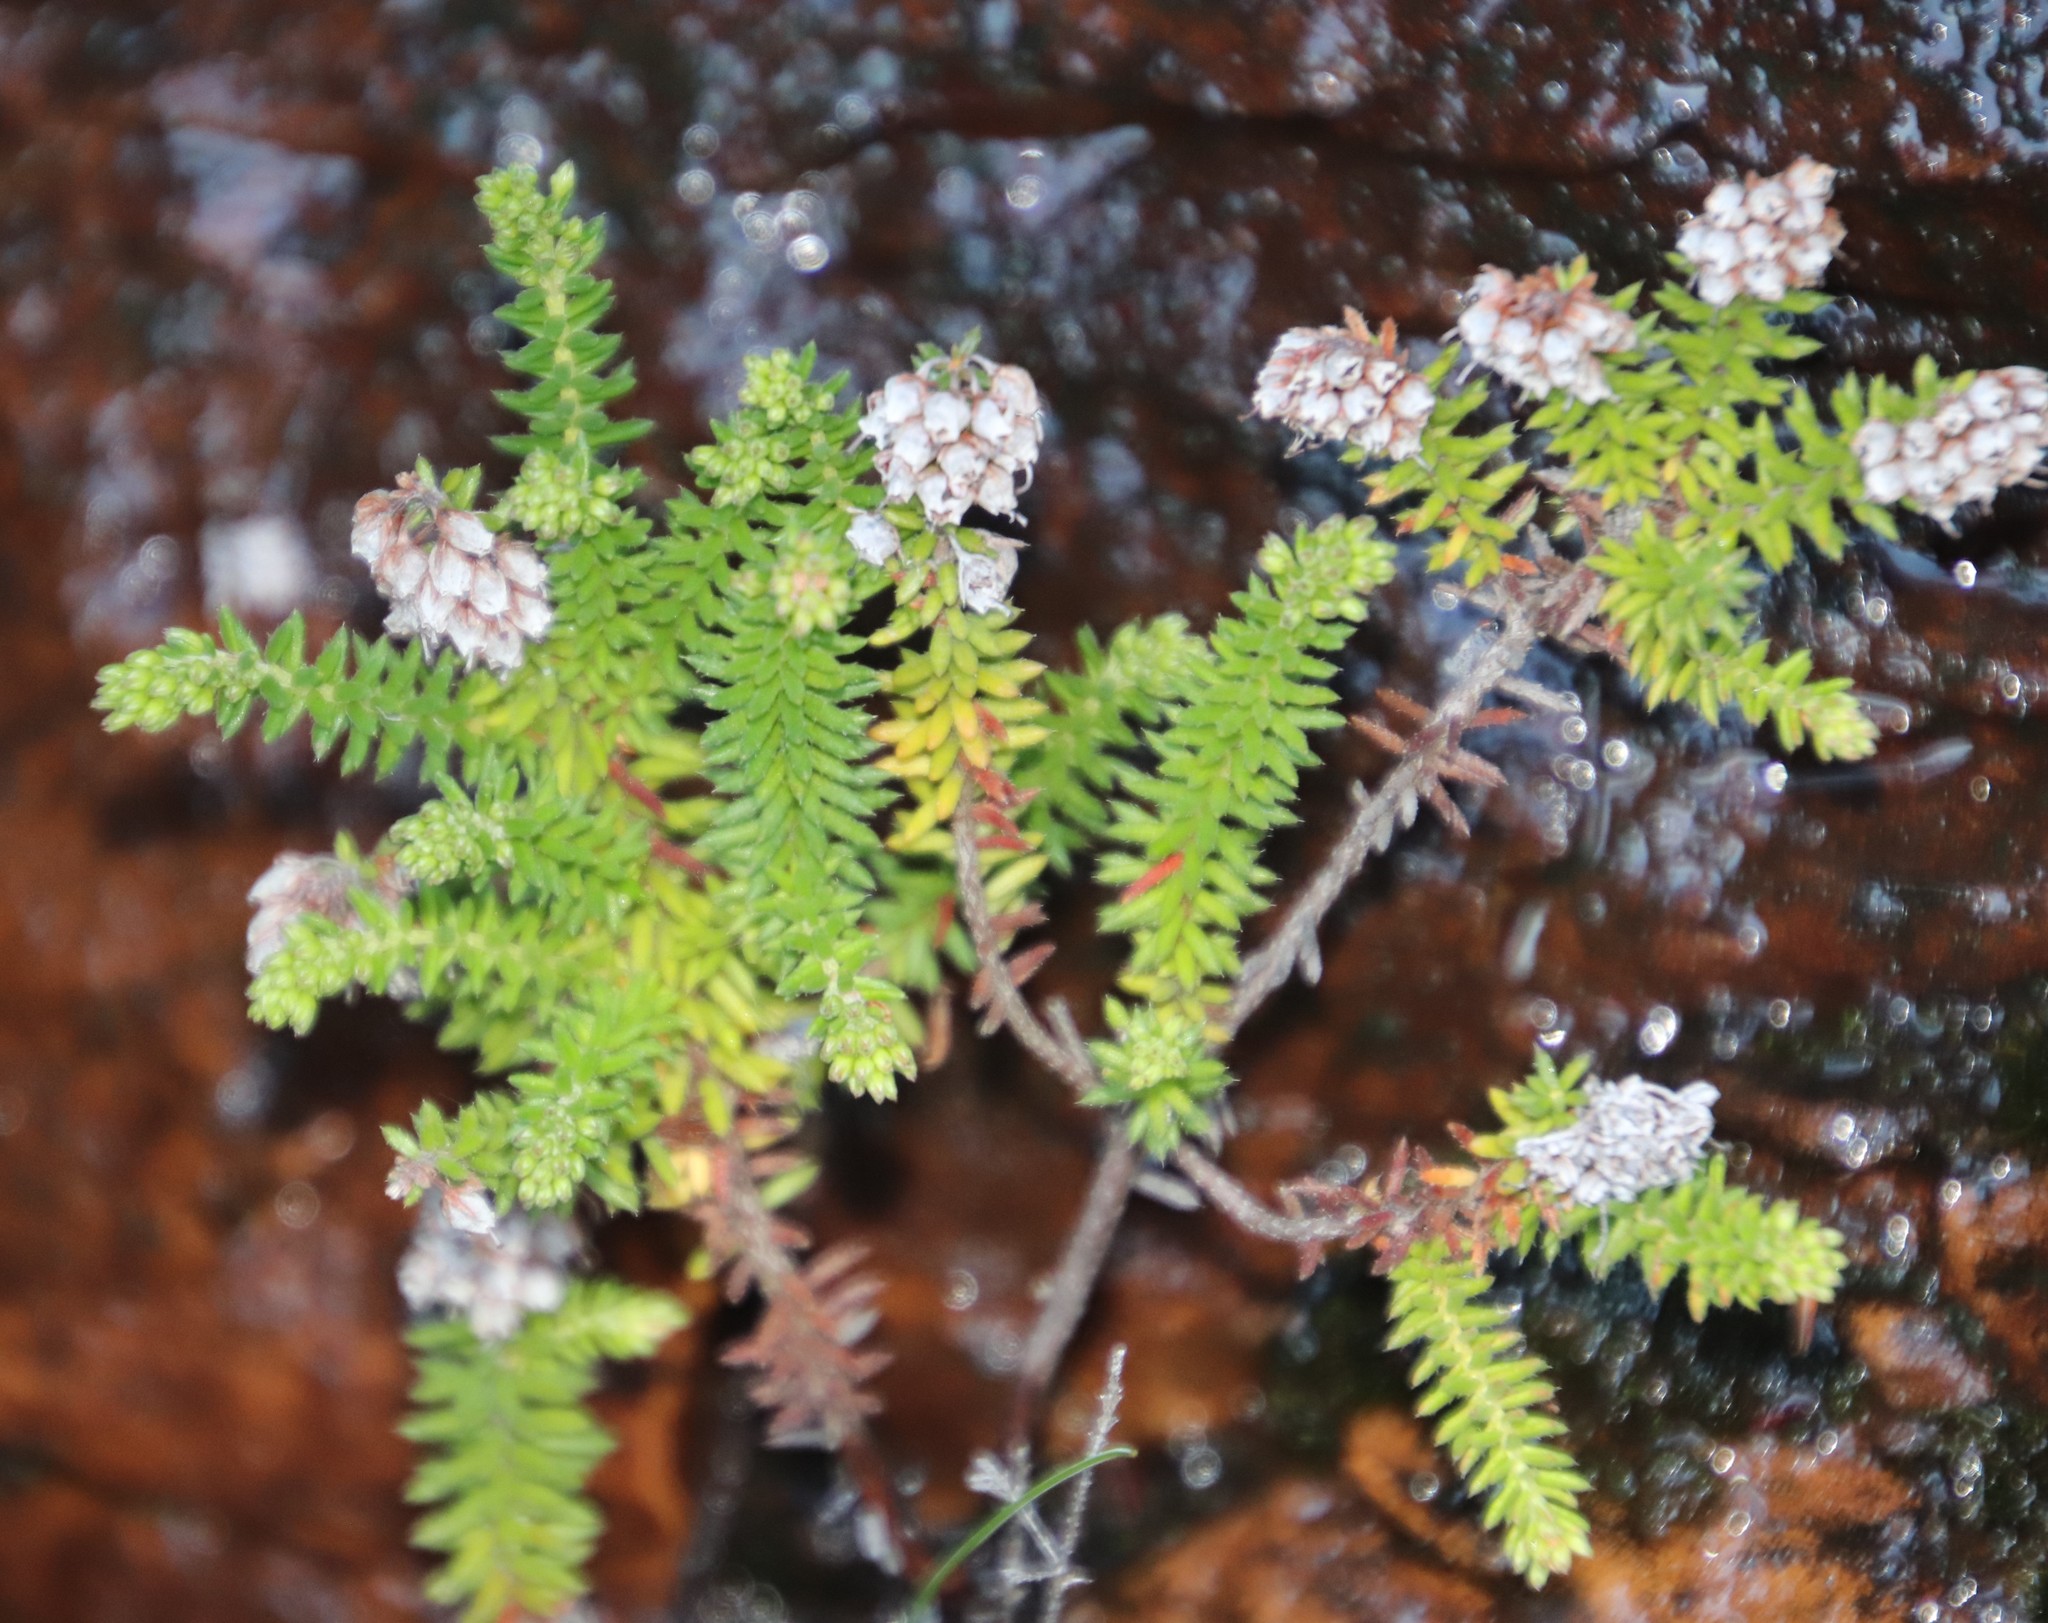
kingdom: Plantae
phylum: Tracheophyta
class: Magnoliopsida
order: Ericales
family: Ericaceae
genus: Erica
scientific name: Erica strigosa
